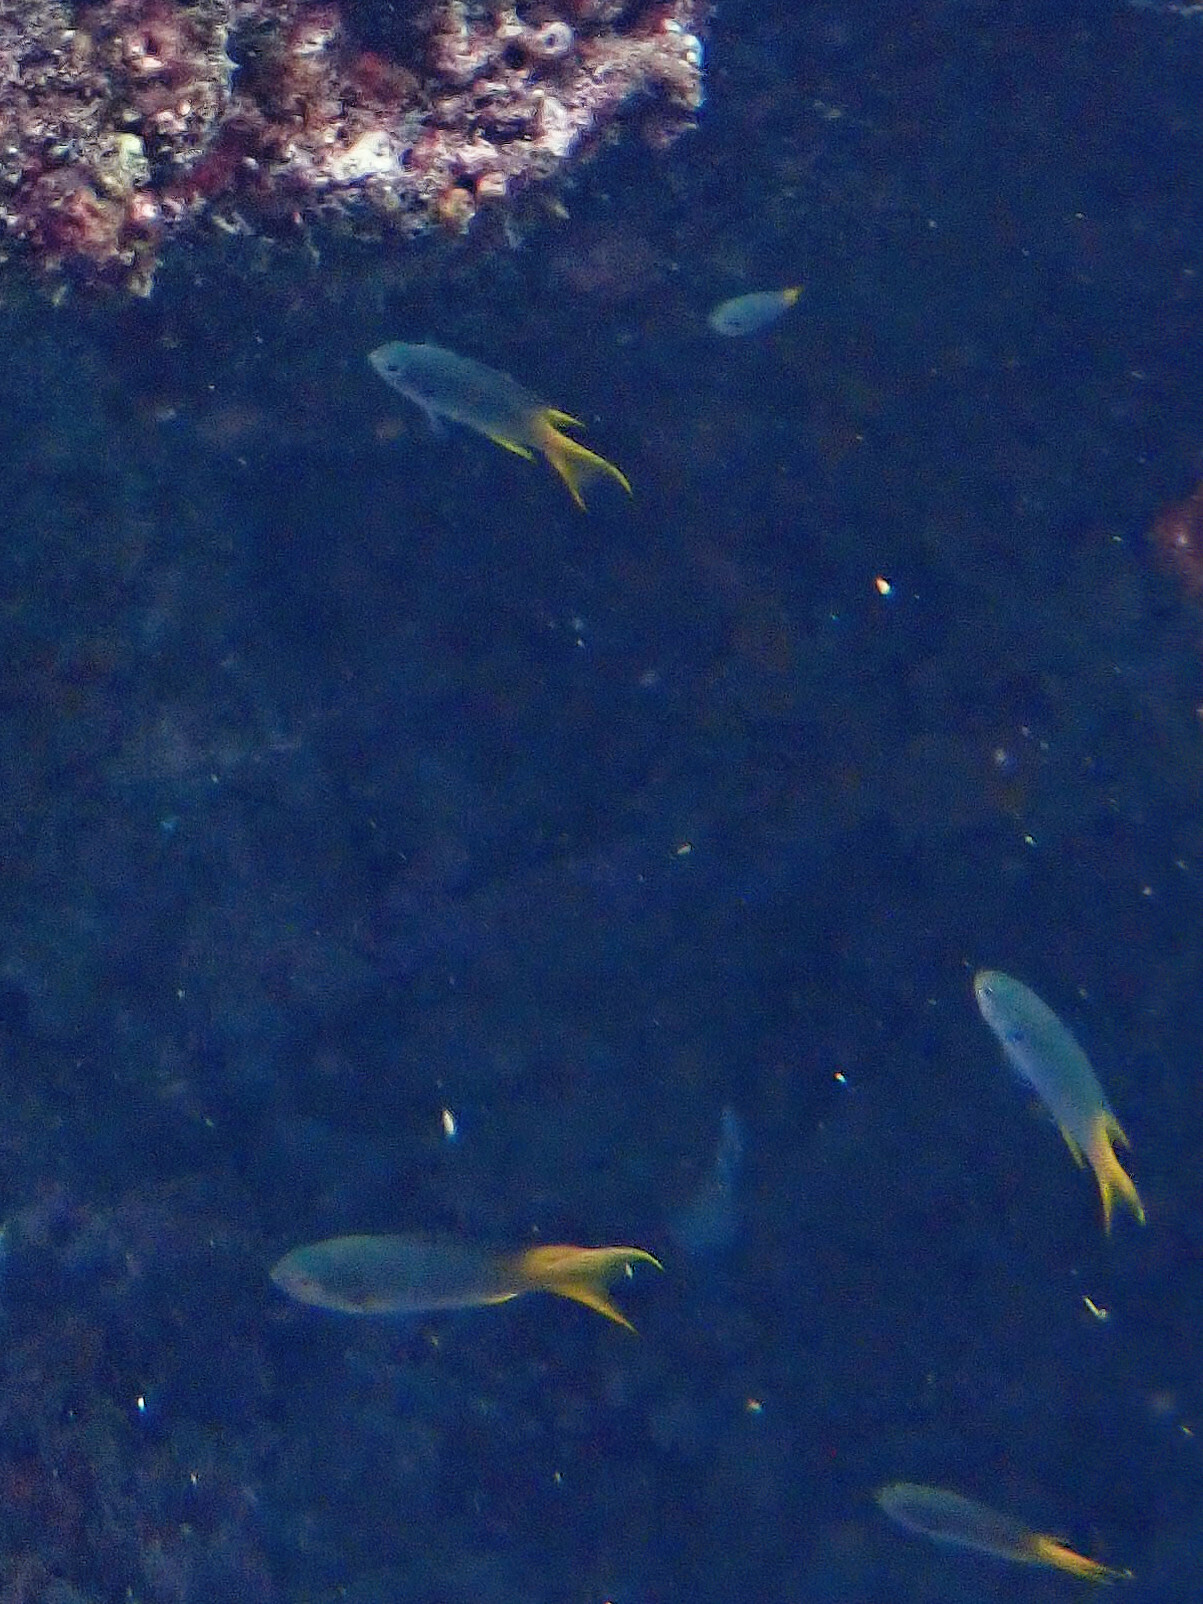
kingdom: Animalia
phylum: Chordata
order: Perciformes
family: Pomacentridae
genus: Neopomacentrus
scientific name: Neopomacentrus sororius
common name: Twin demoiselle
